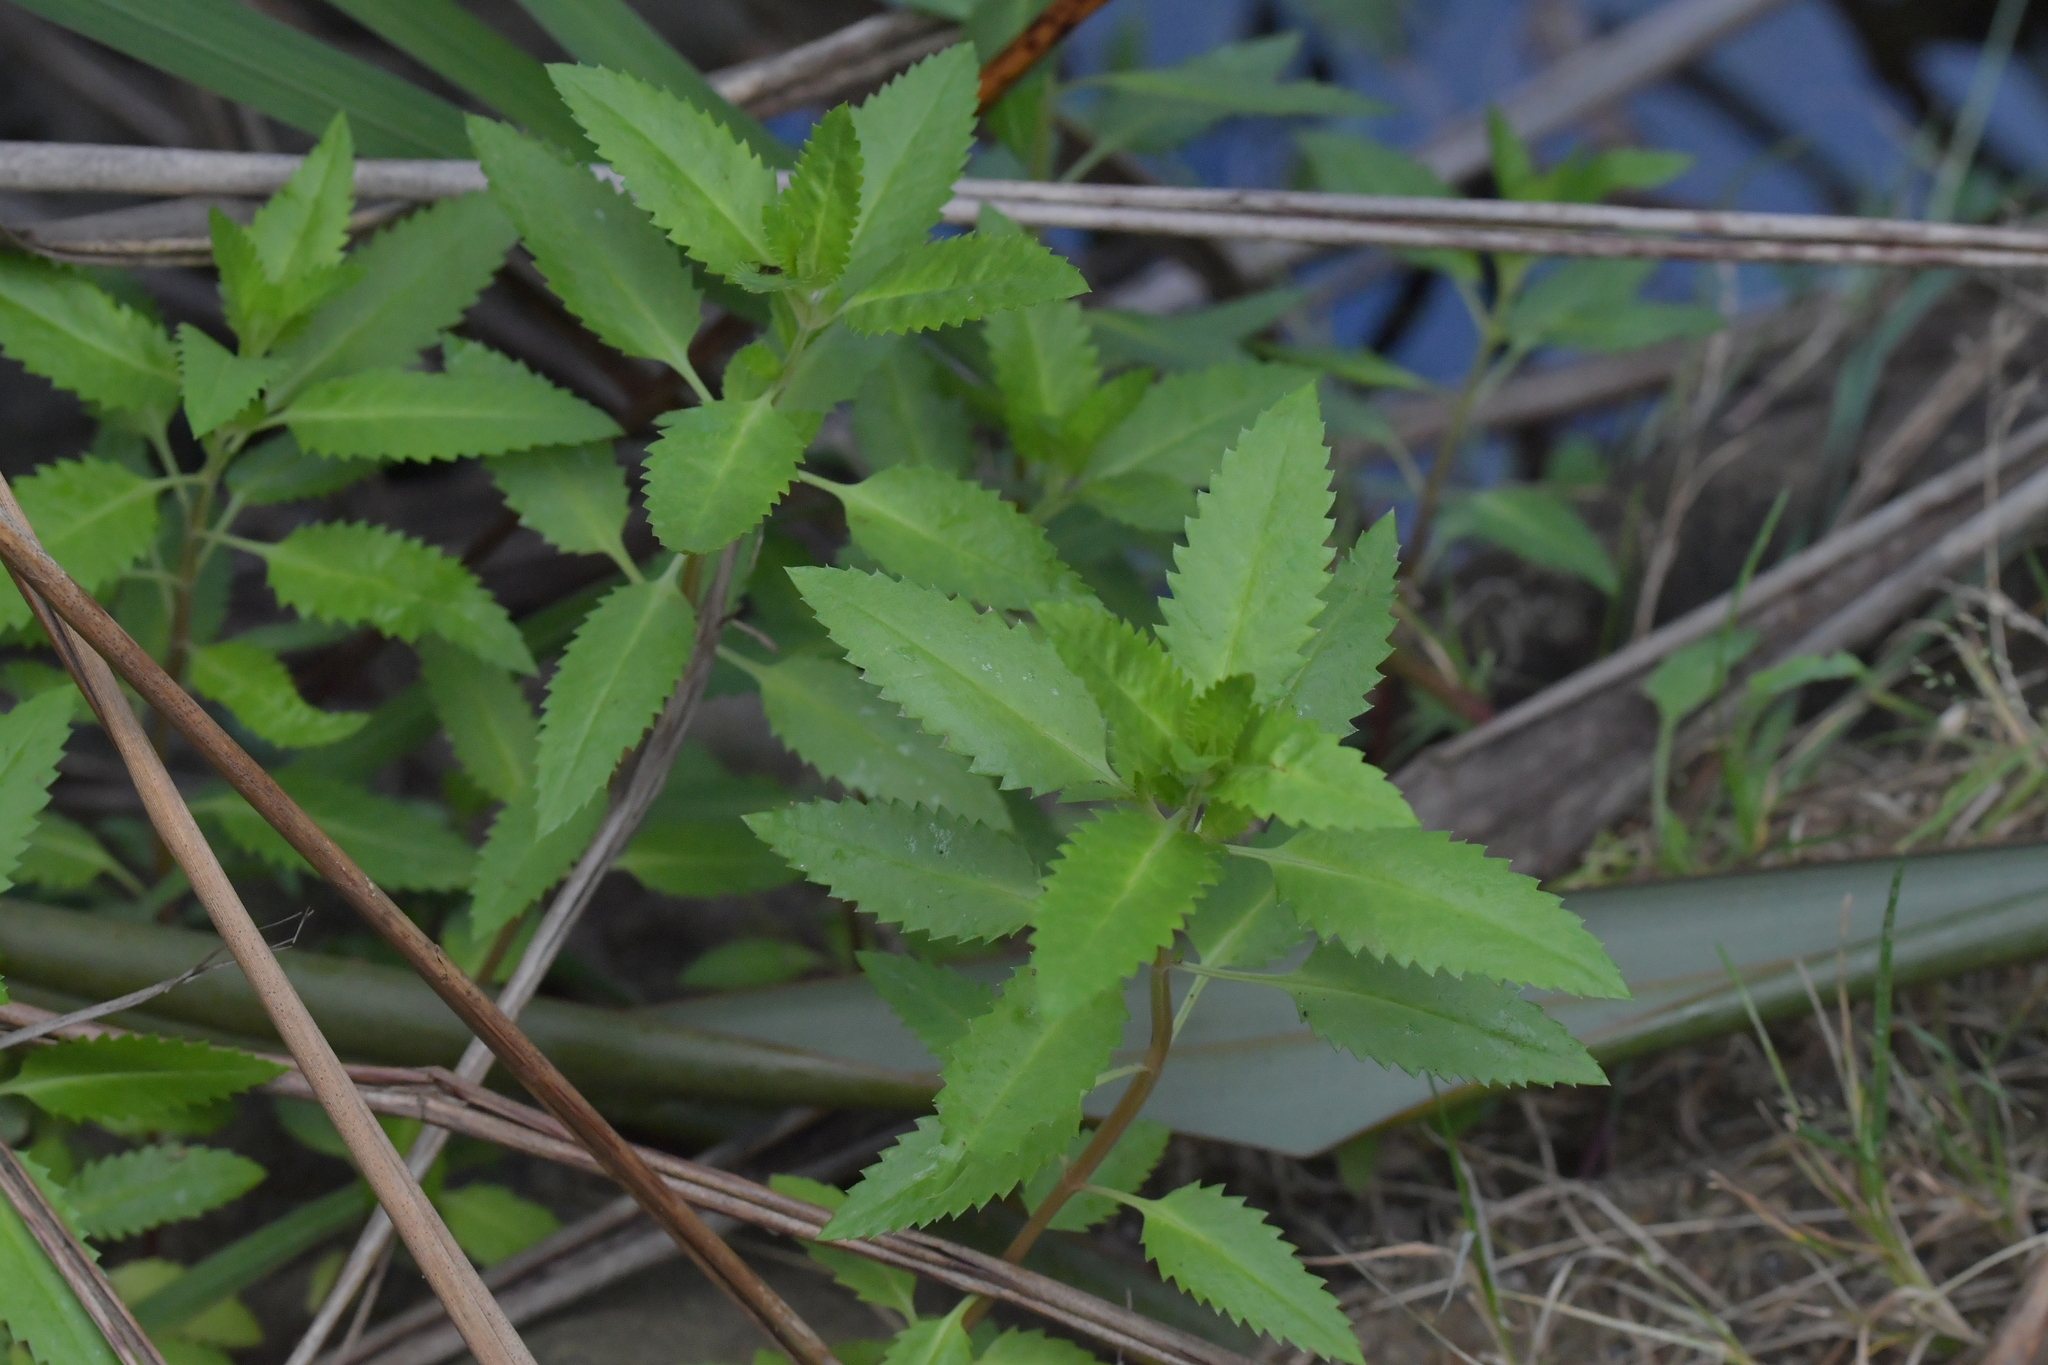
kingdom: Plantae
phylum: Tracheophyta
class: Magnoliopsida
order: Saxifragales
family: Haloragaceae
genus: Haloragis
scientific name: Haloragis erecta
